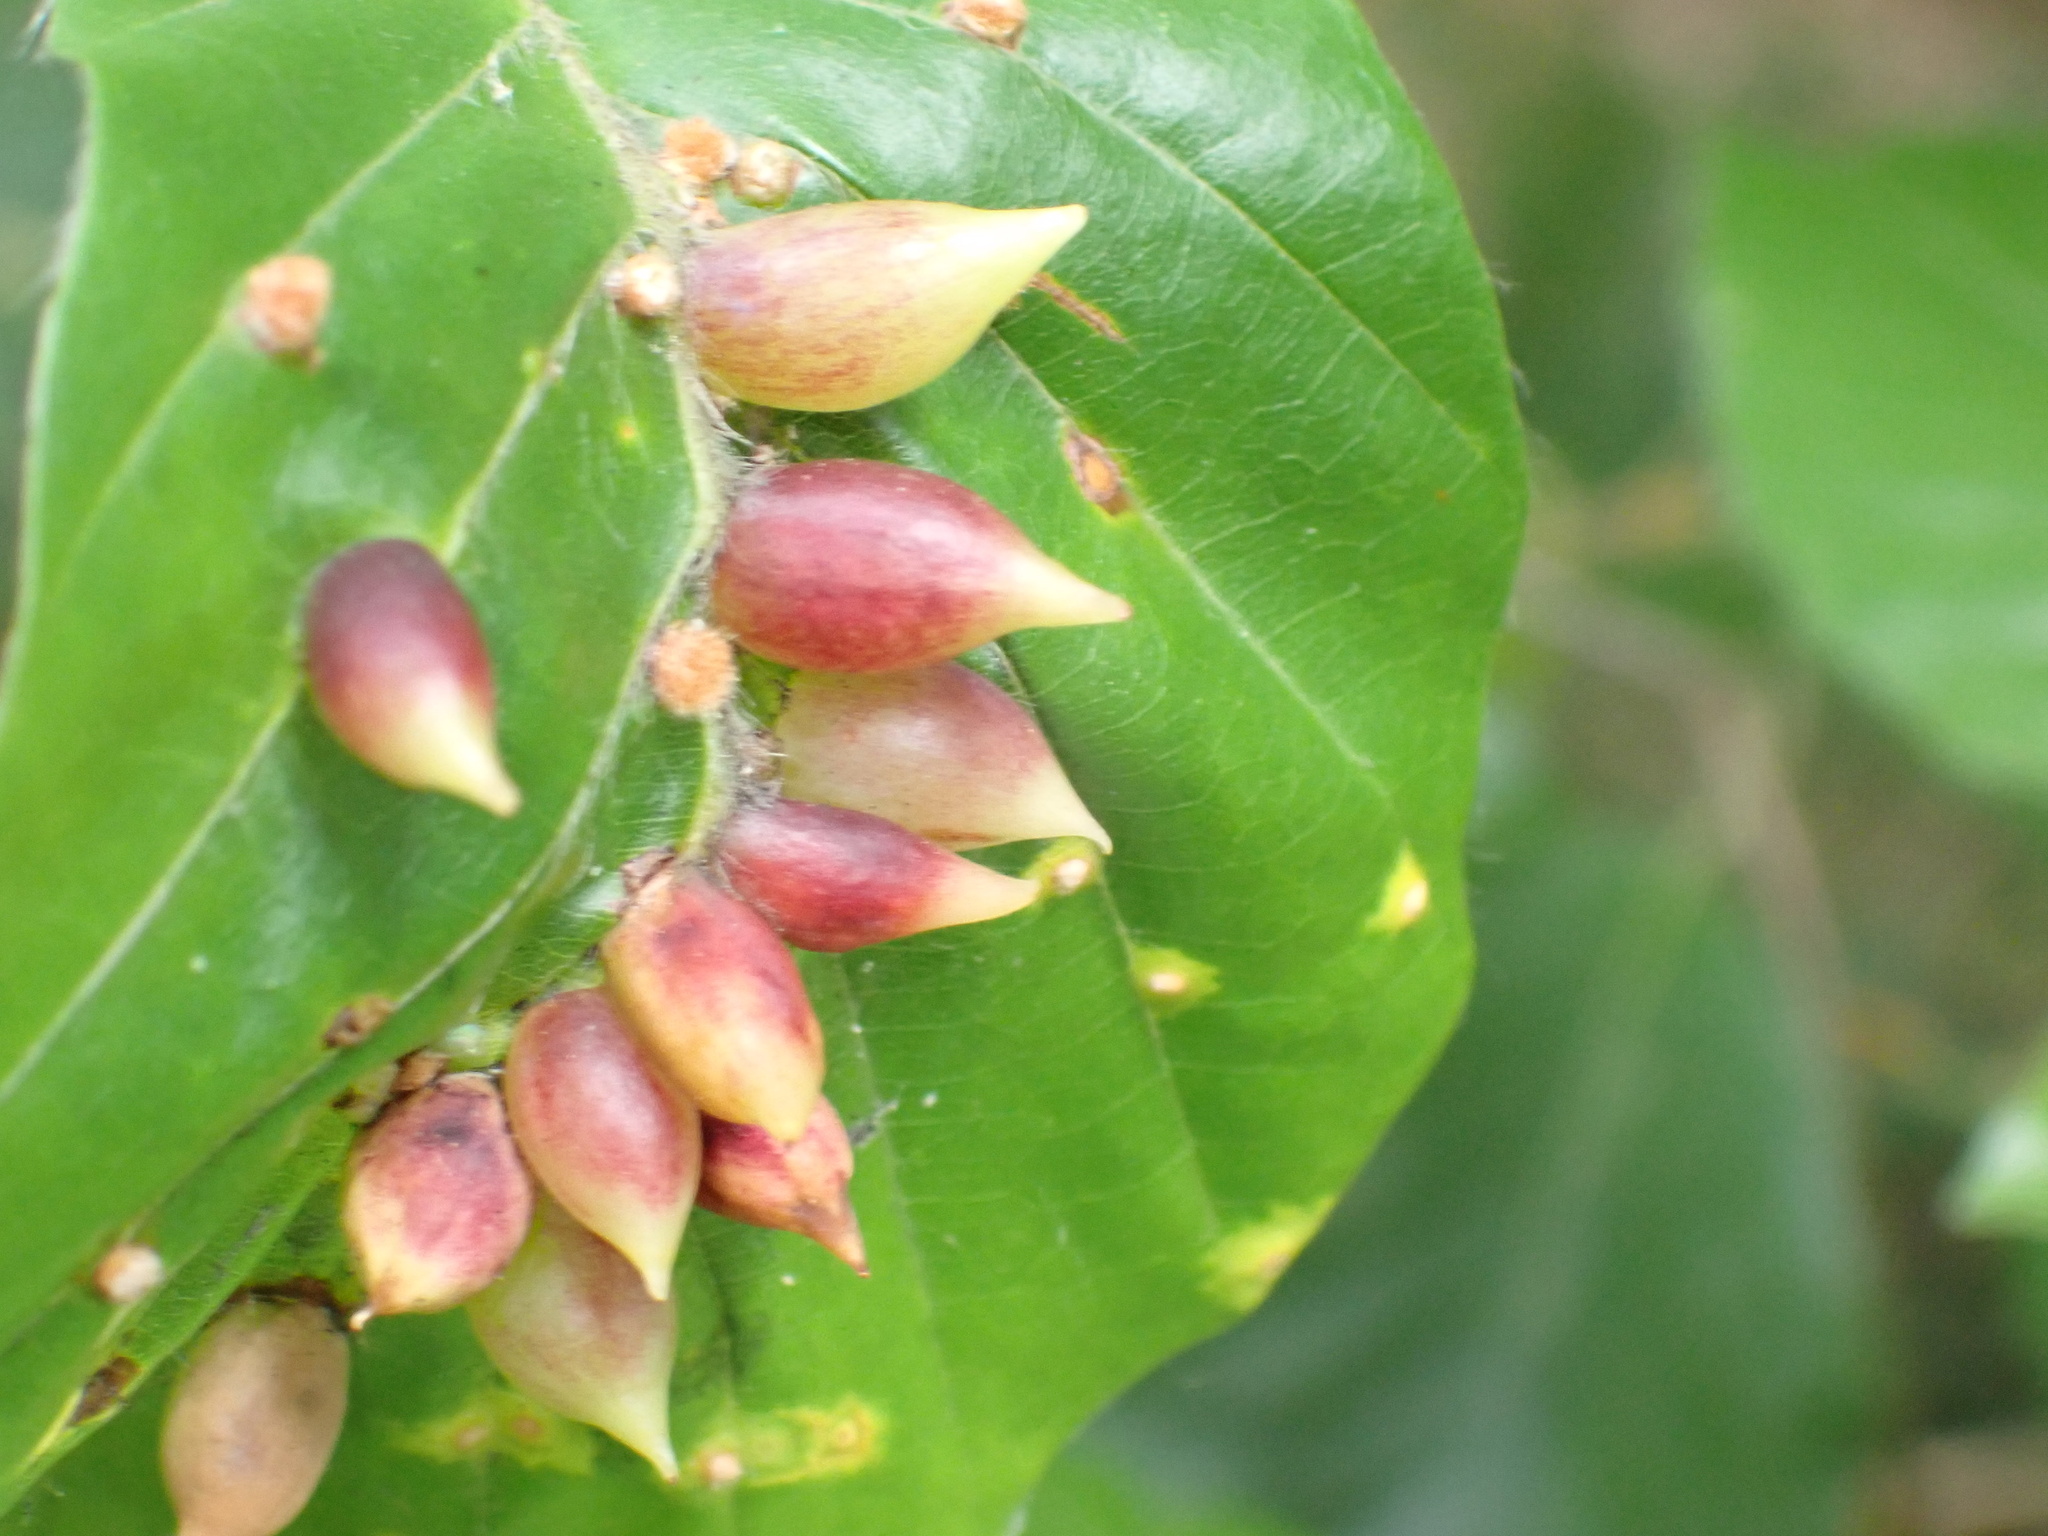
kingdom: Animalia
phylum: Arthropoda
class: Insecta
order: Diptera
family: Cecidomyiidae
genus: Mikiola
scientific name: Mikiola fagi
